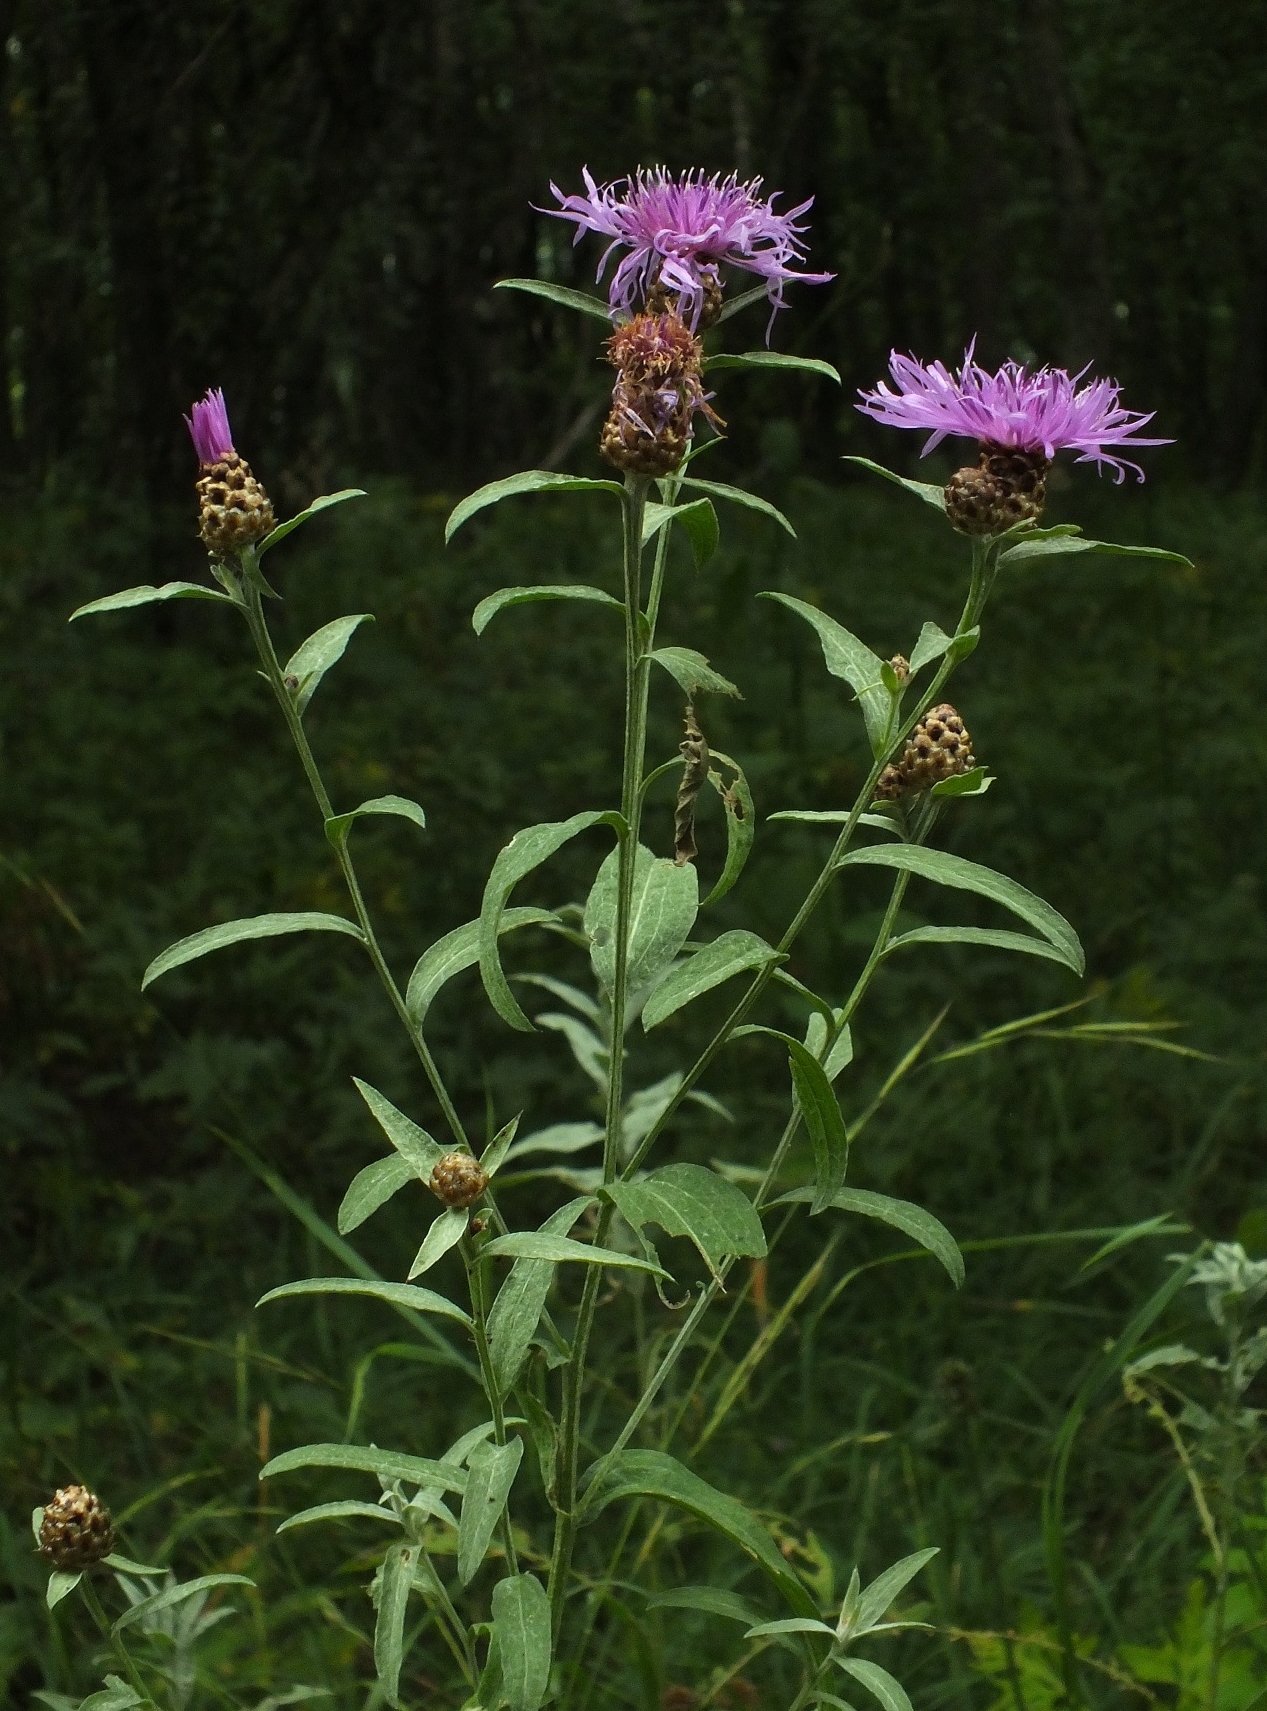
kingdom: Plantae
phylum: Tracheophyta
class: Magnoliopsida
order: Asterales
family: Asteraceae
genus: Centaurea
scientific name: Centaurea jacea
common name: Brown knapweed
